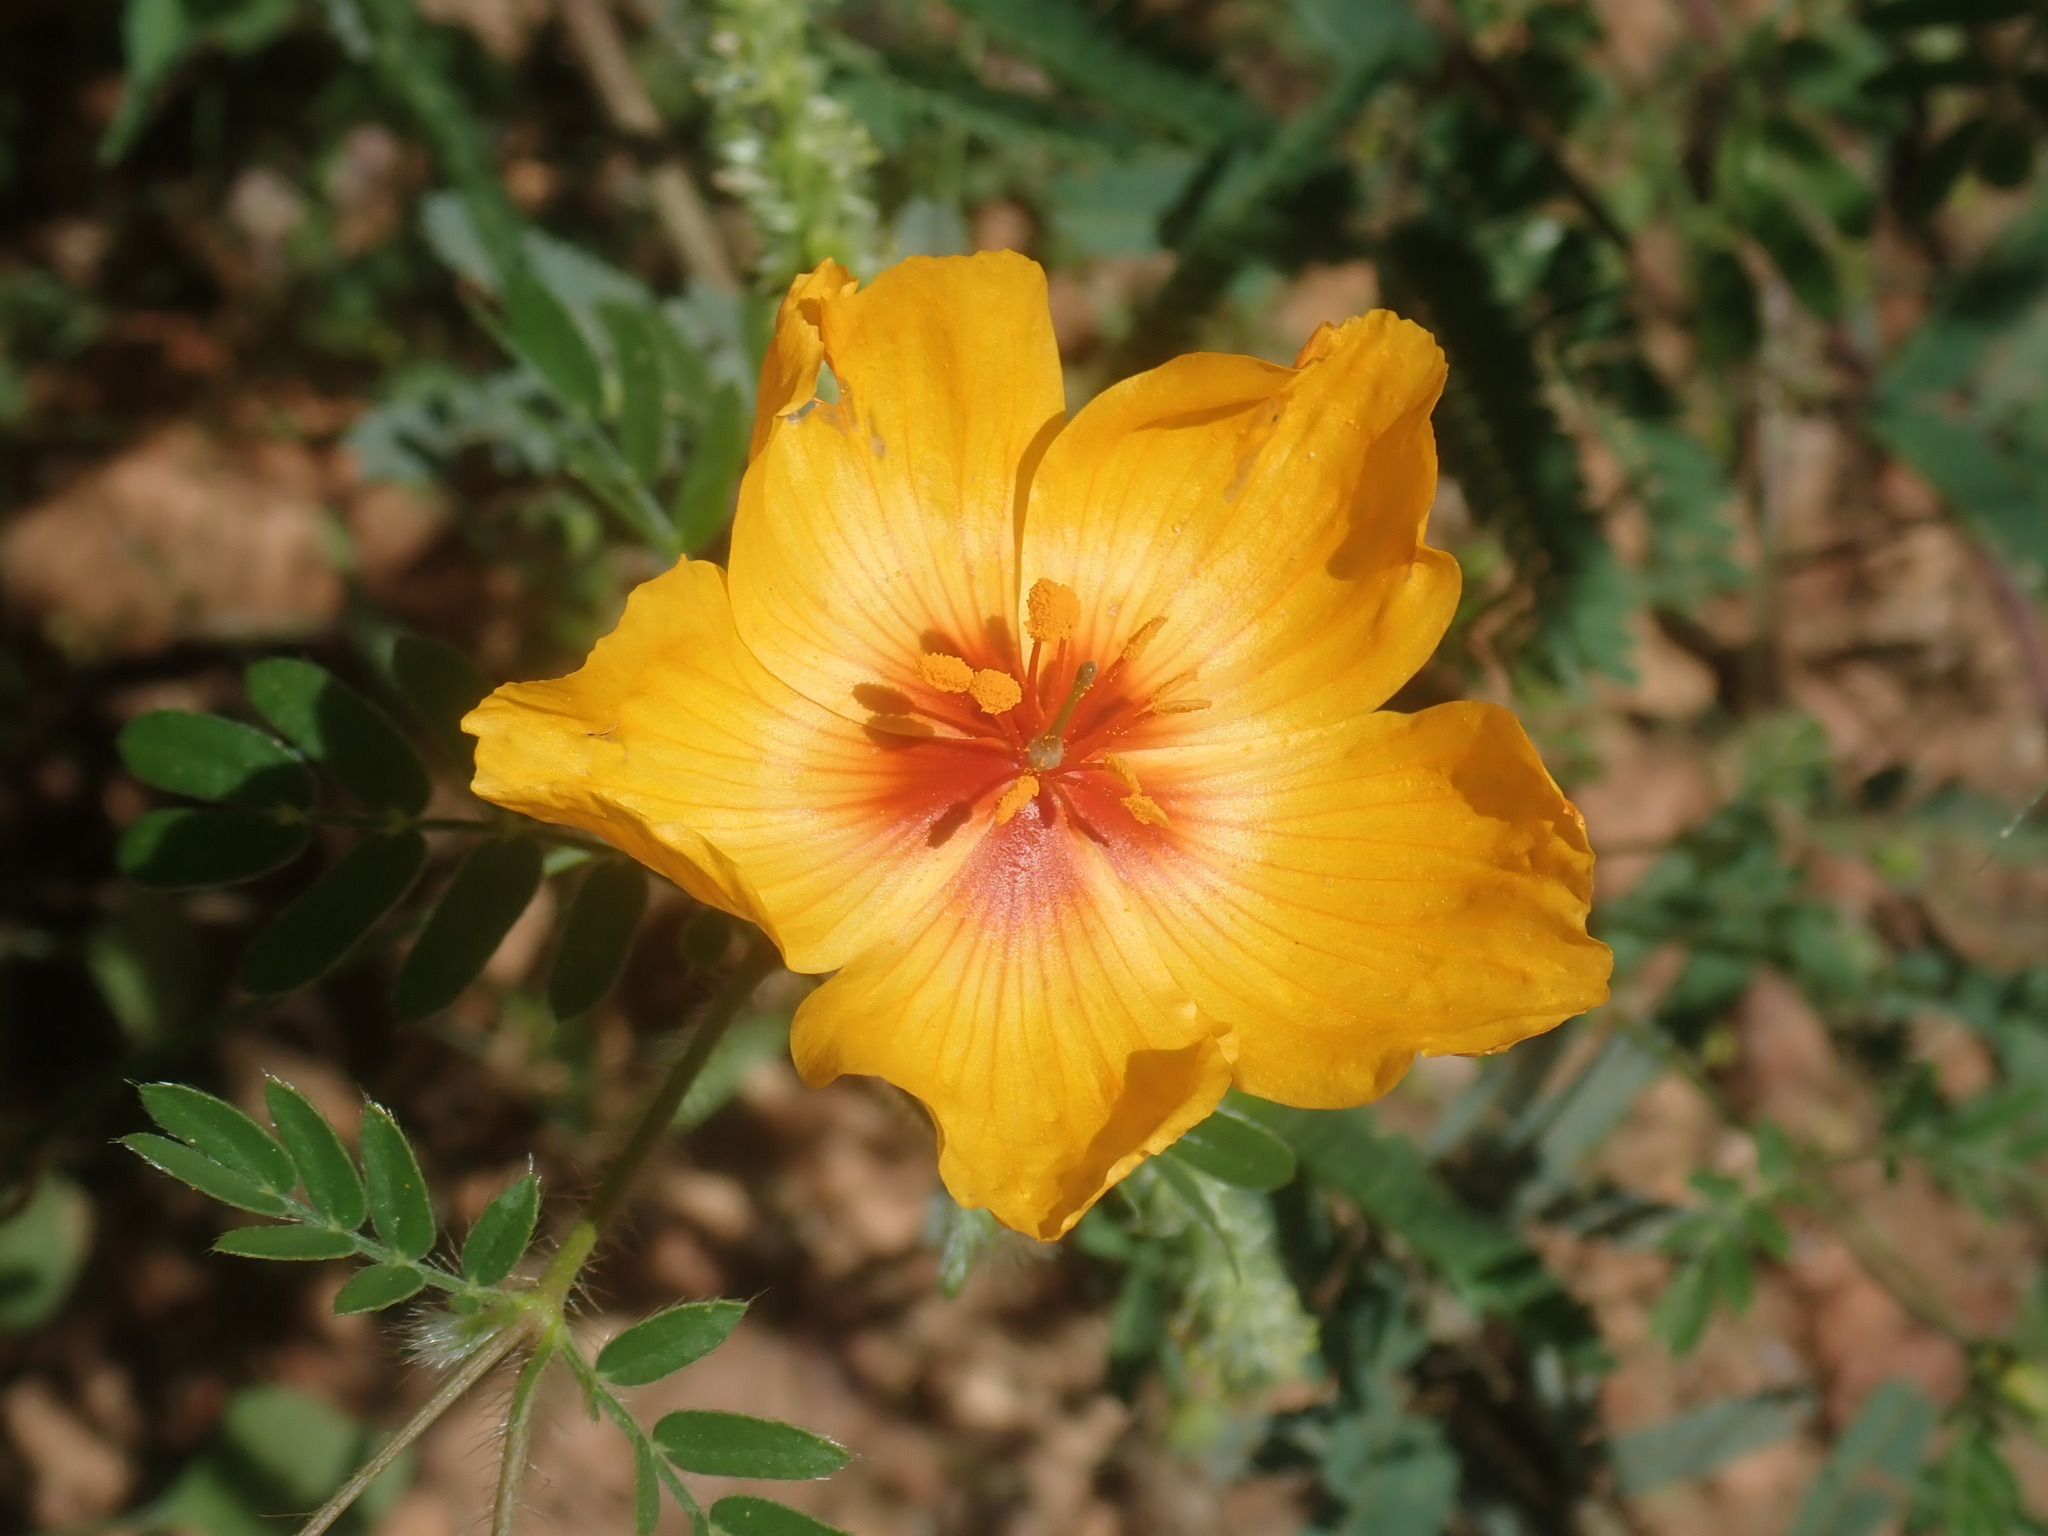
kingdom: Plantae
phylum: Tracheophyta
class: Magnoliopsida
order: Zygophyllales
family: Zygophyllaceae
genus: Kallstroemia
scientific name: Kallstroemia grandiflora
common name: Arizona-poppy
